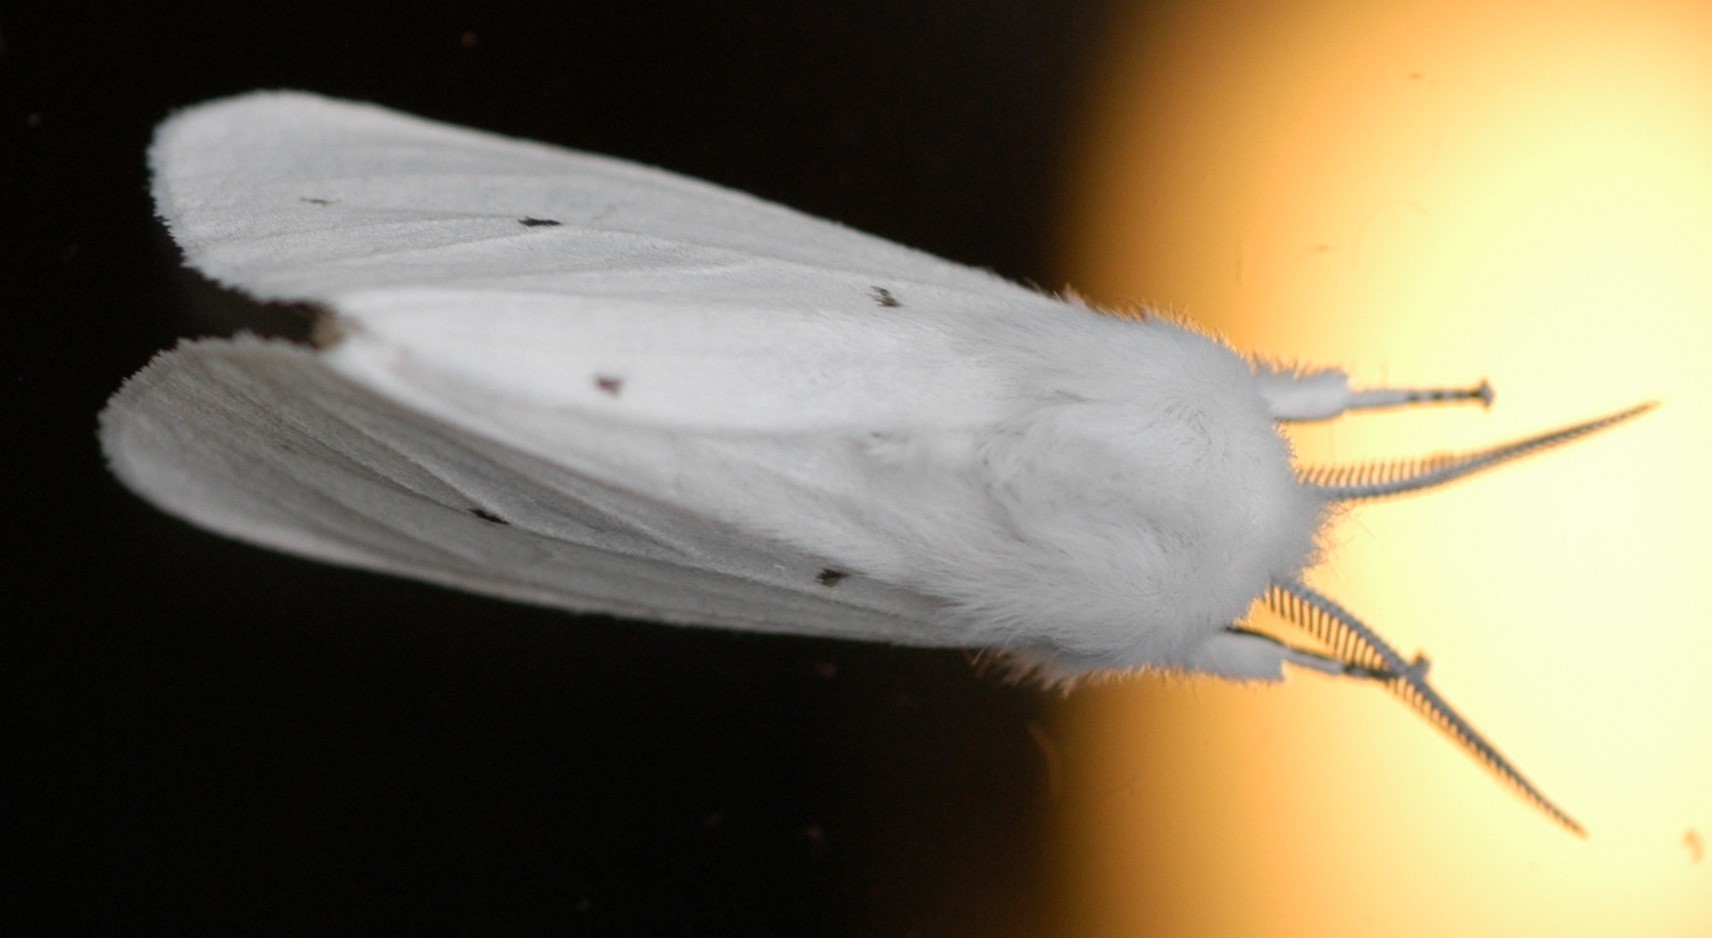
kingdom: Animalia
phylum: Arthropoda
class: Insecta
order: Lepidoptera
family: Erebidae
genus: Spilosoma
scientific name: Spilosoma virginica
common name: Virginia tiger moth
